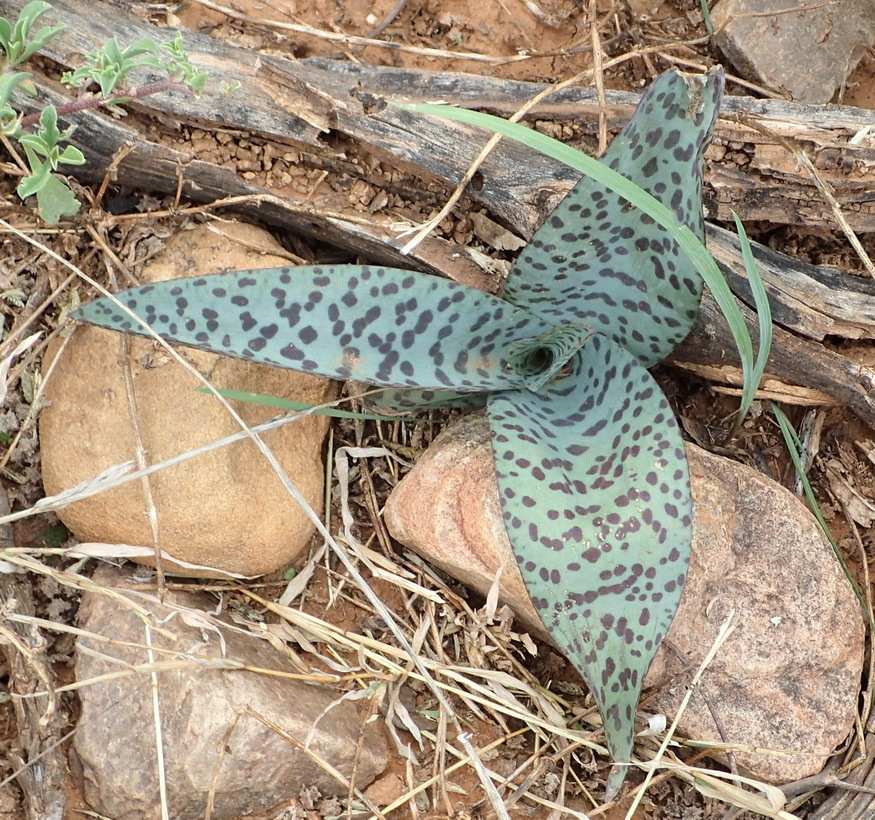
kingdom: Plantae
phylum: Tracheophyta
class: Liliopsida
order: Asparagales
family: Asparagaceae
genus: Ledebouria
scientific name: Ledebouria ensifolia
